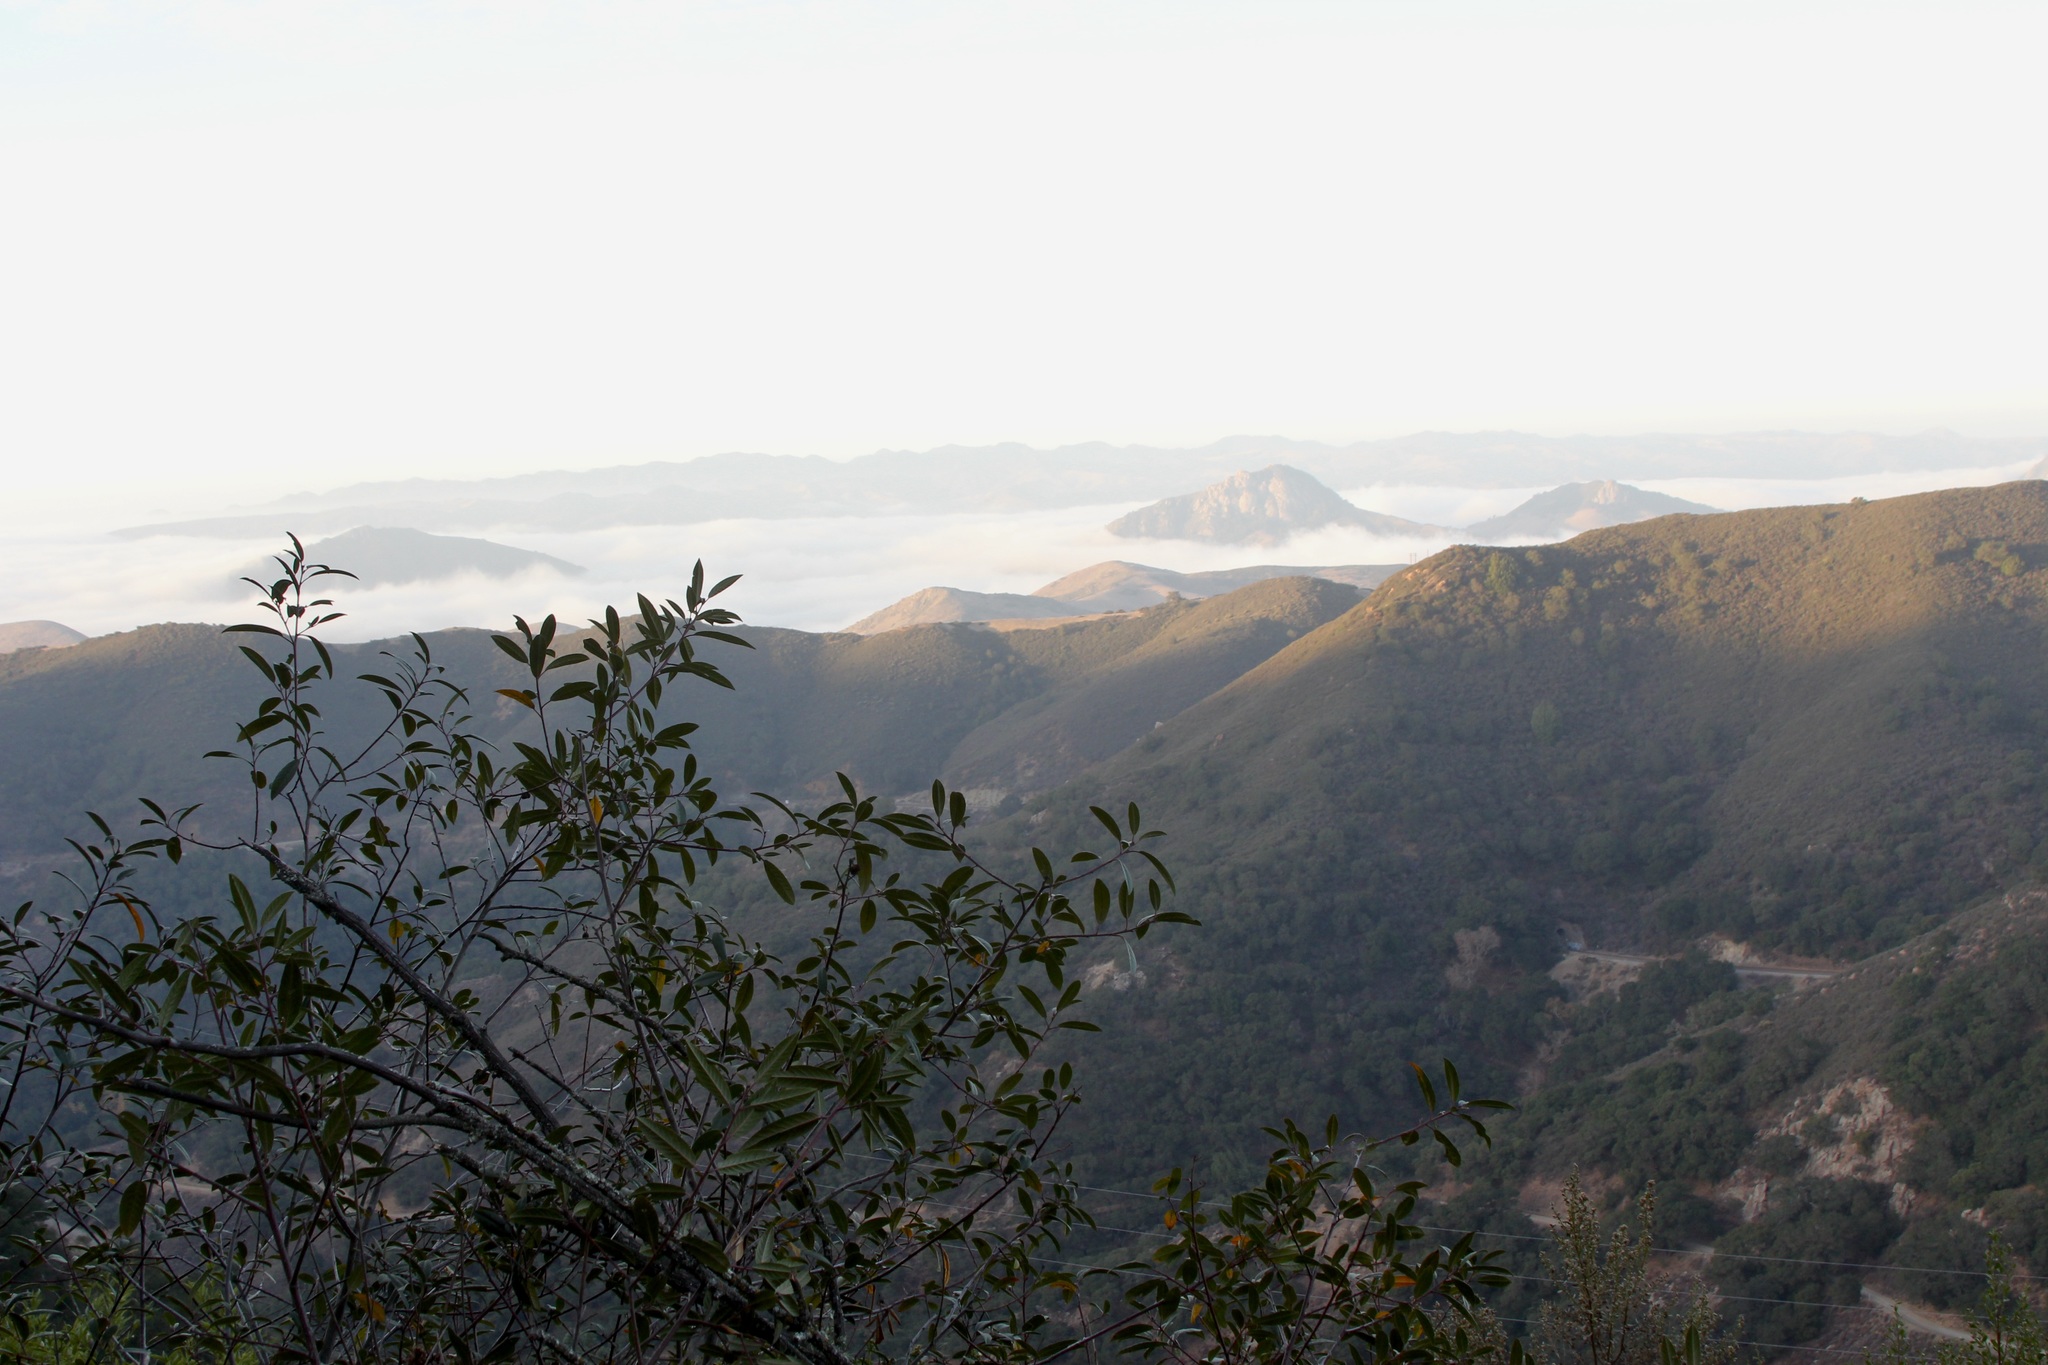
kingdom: Plantae
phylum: Tracheophyta
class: Magnoliopsida
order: Rosales
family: Rhamnaceae
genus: Frangula
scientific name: Frangula californica
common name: California buckthorn
